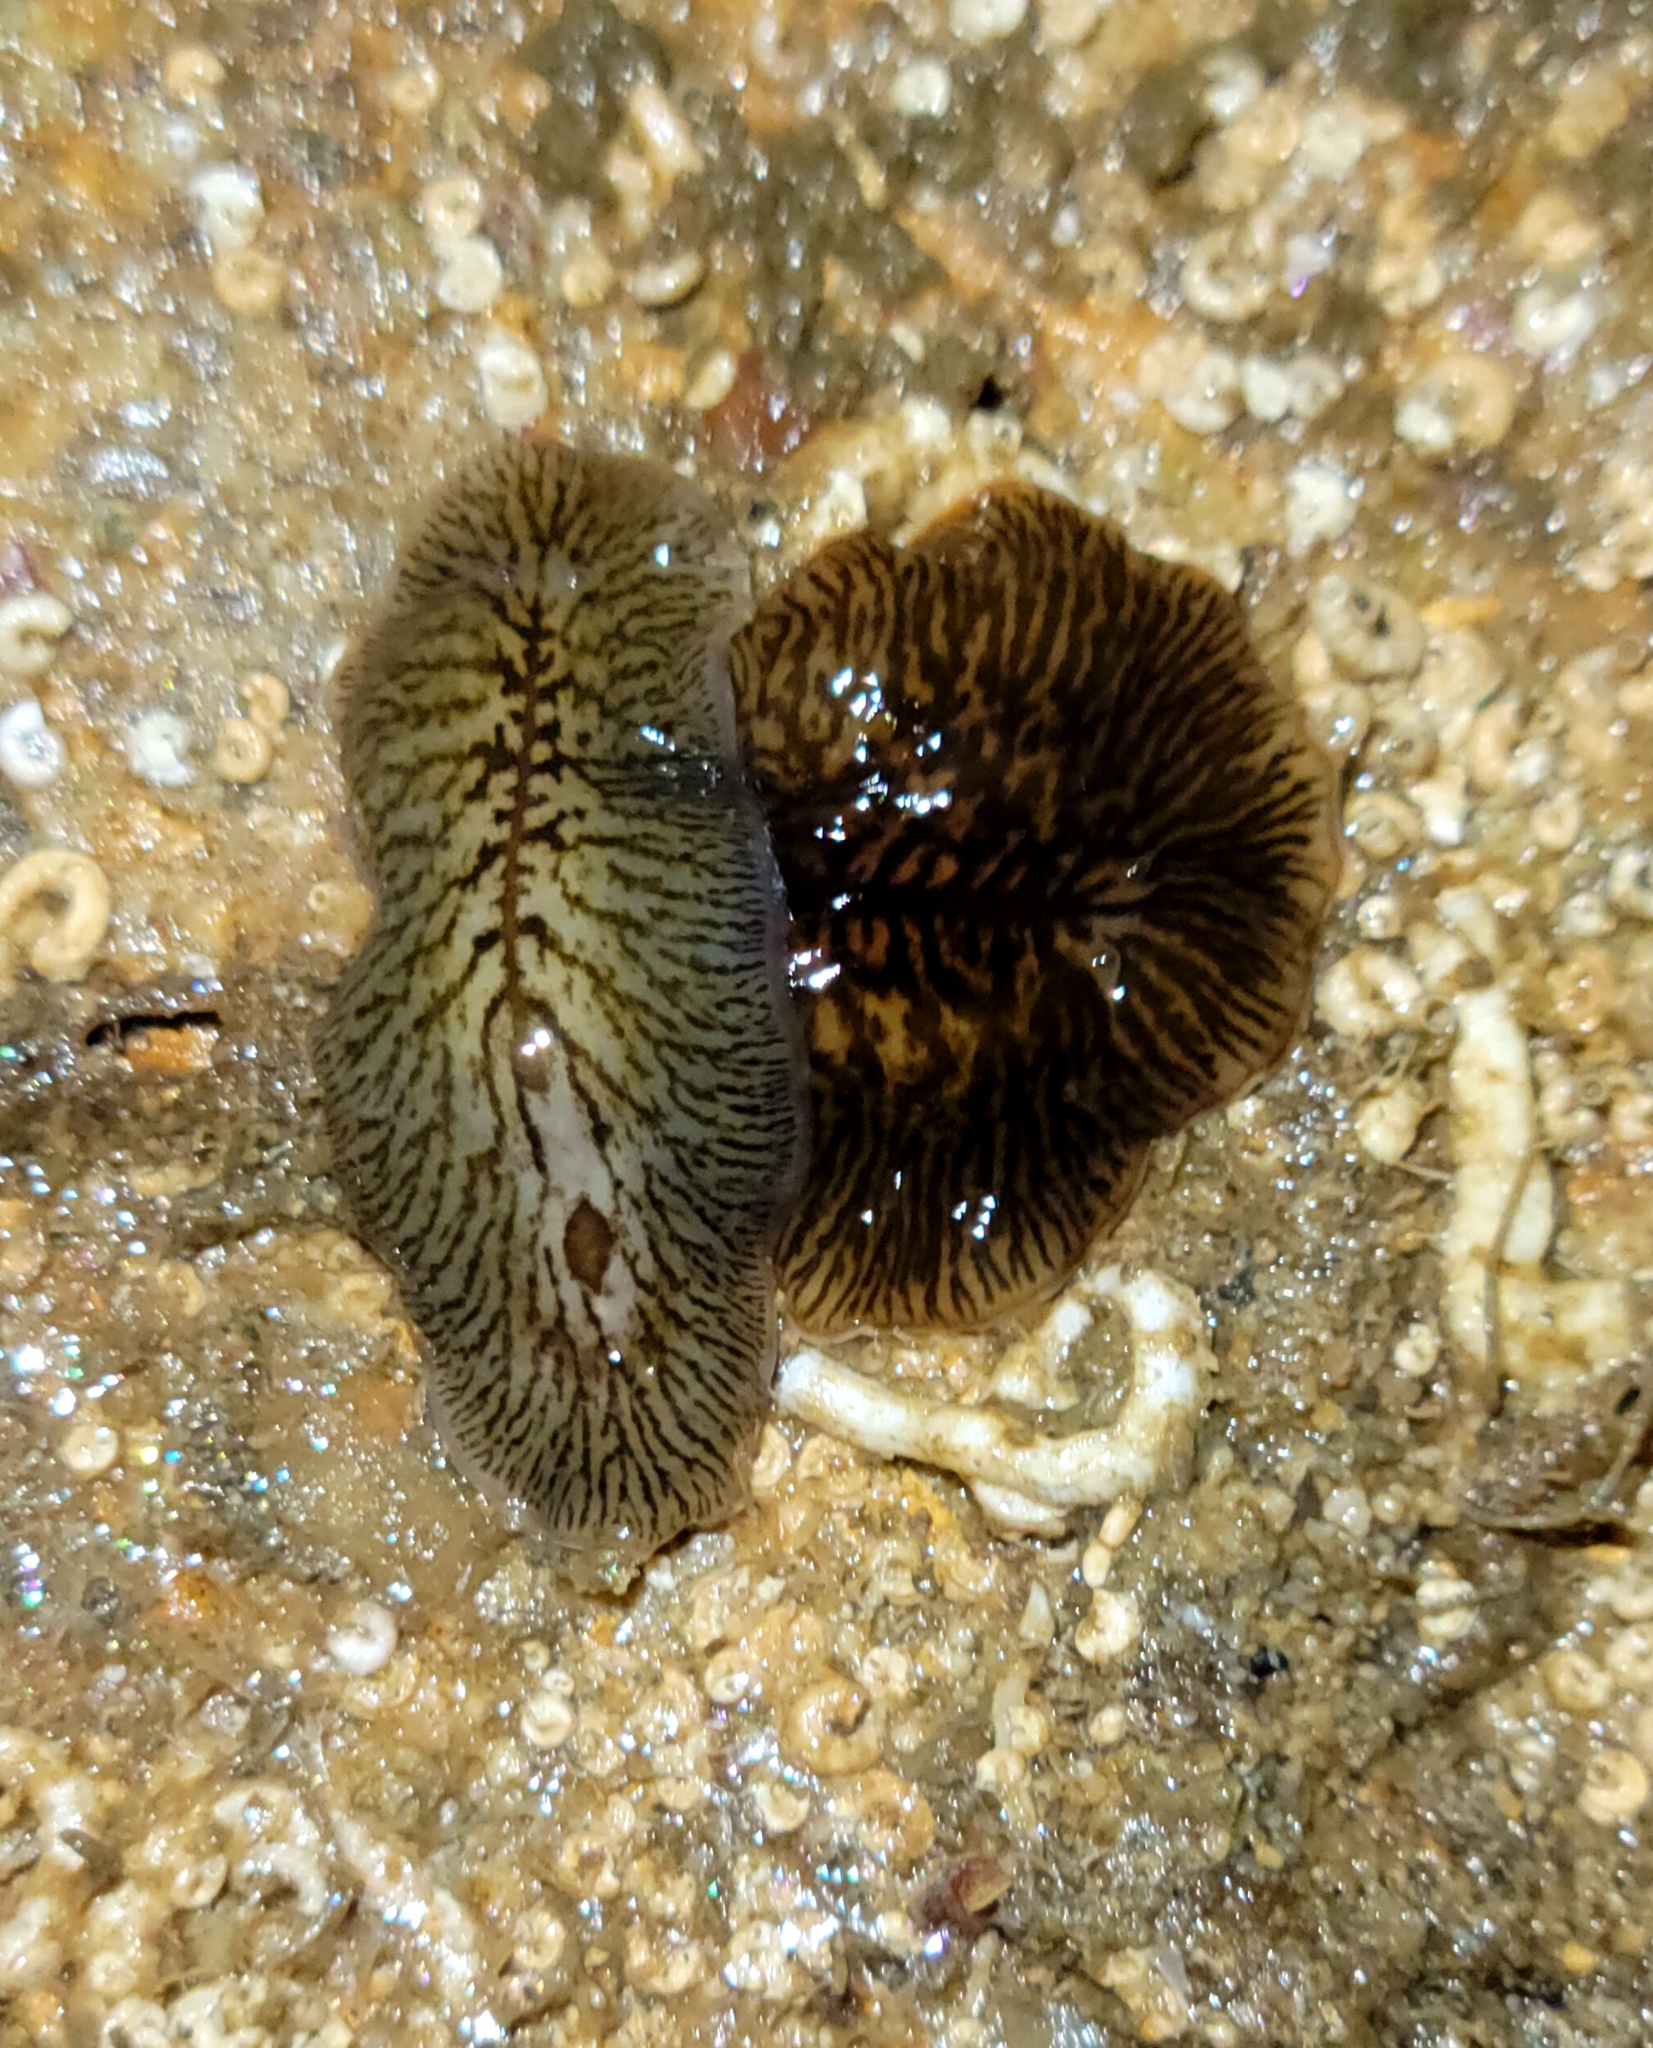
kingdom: Animalia
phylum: Platyhelminthes
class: Turbellaria
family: Cryptocelidae
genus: Hylocelis
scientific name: Hylocelis californica
